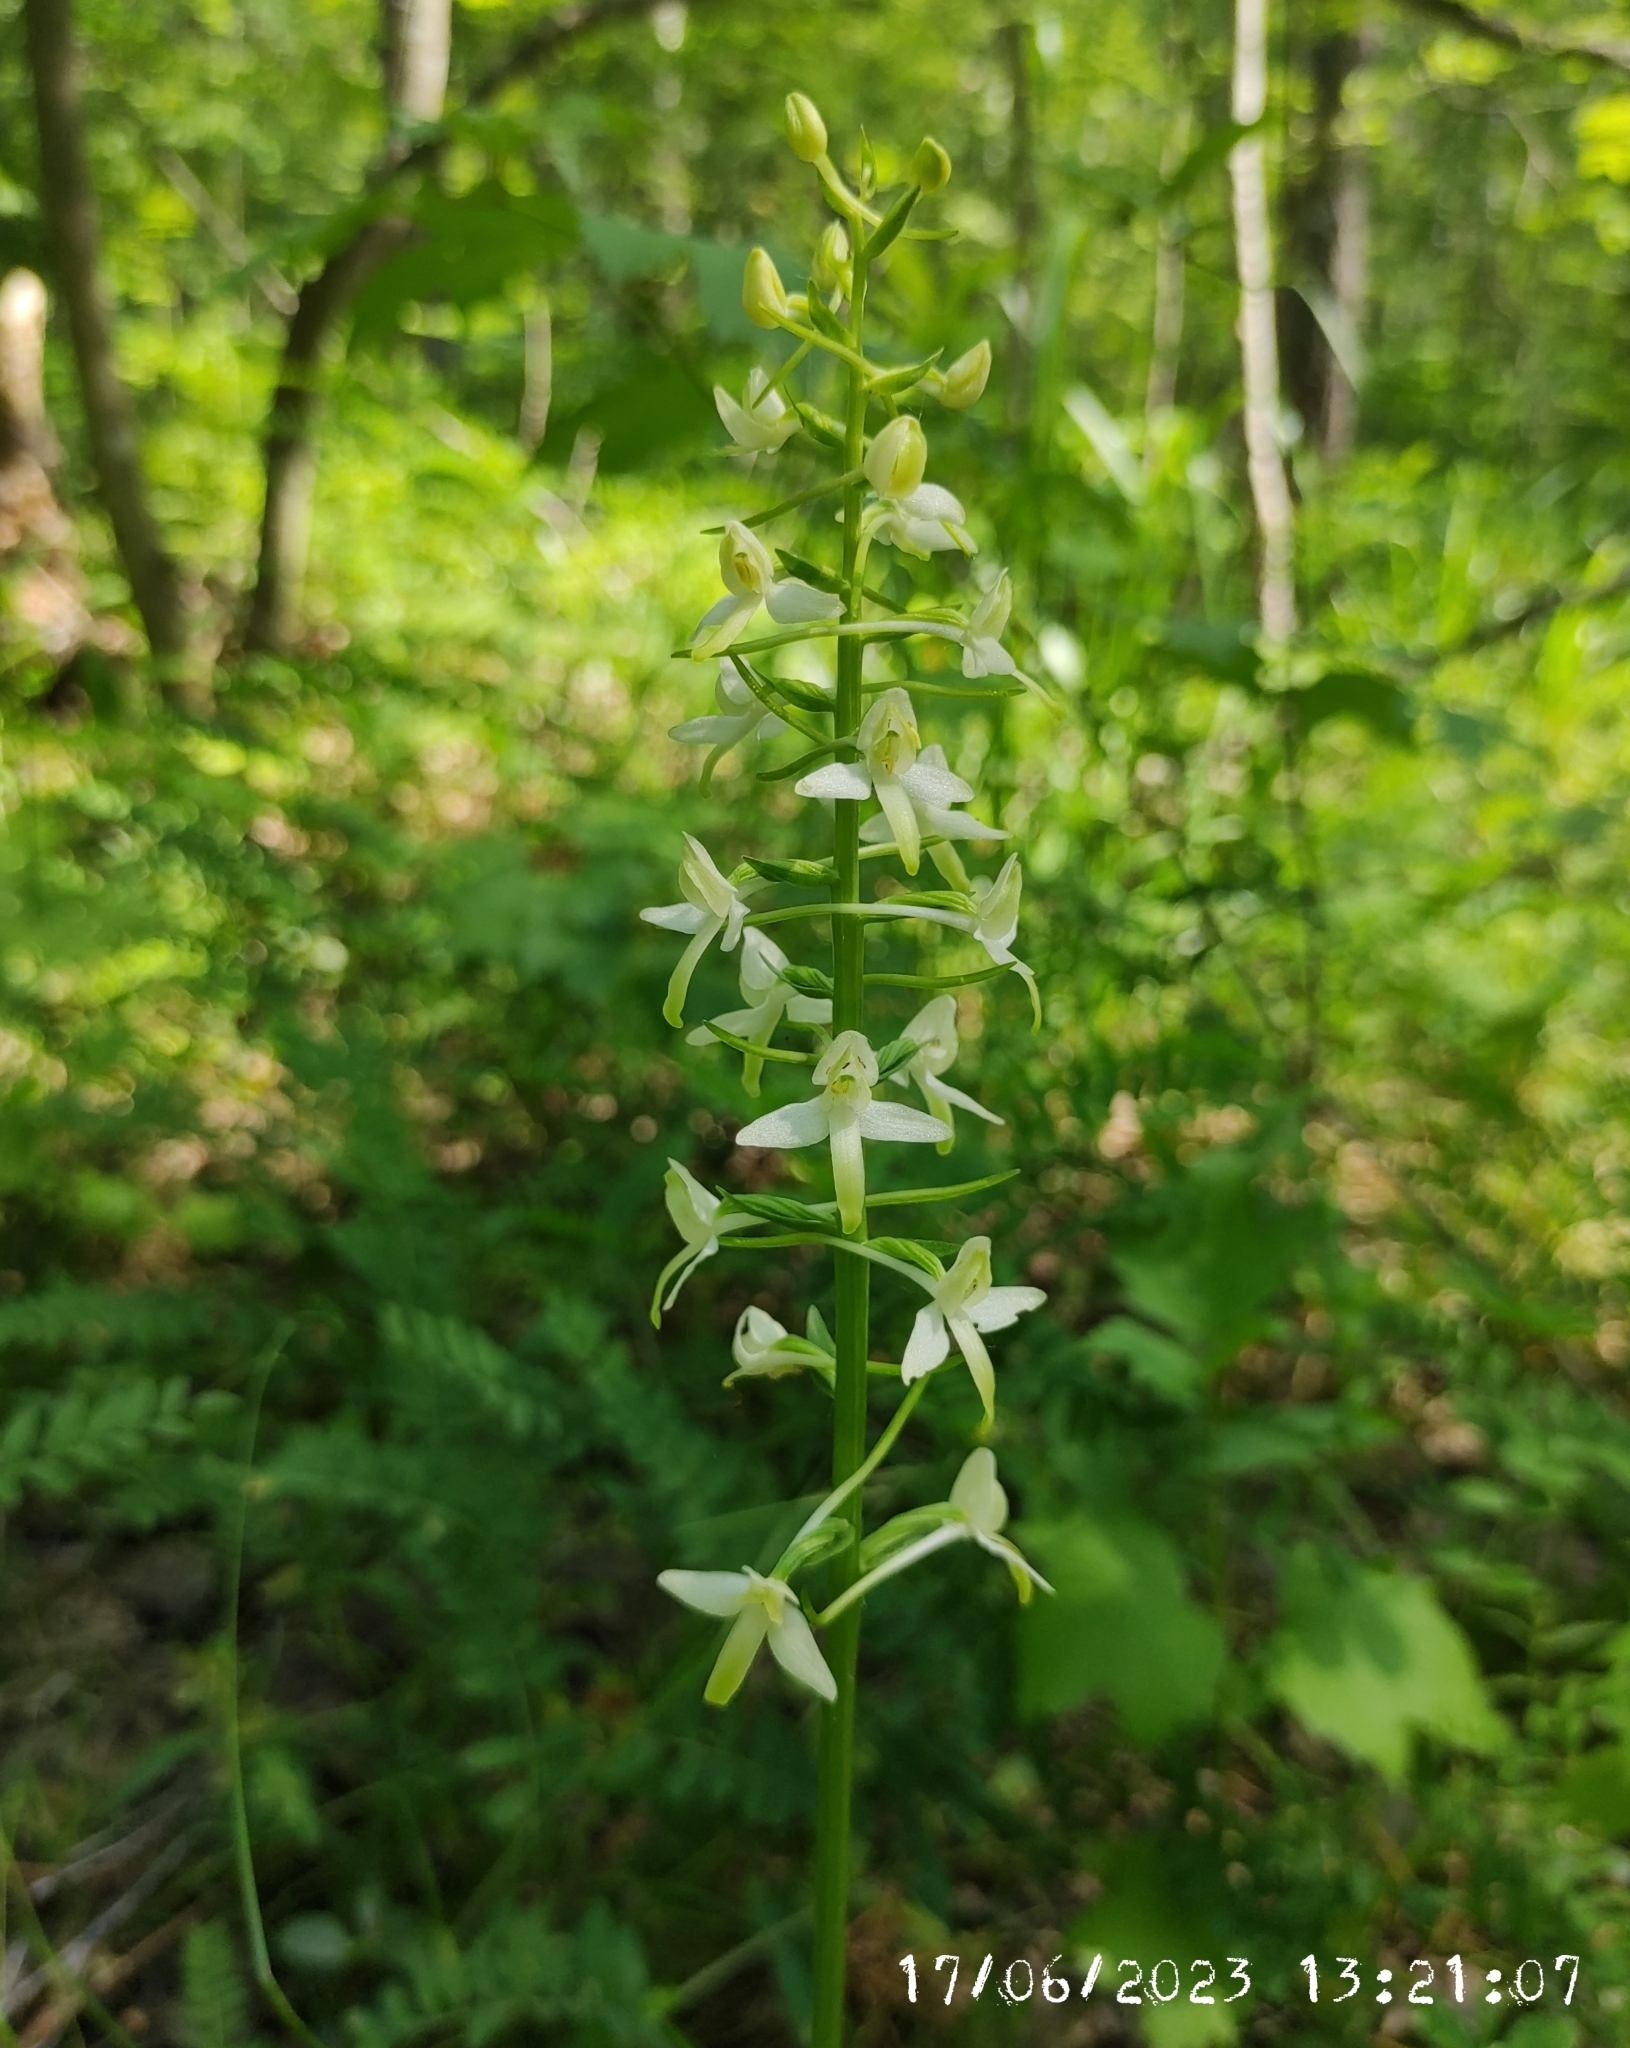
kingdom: Plantae
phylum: Tracheophyta
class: Liliopsida
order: Asparagales
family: Orchidaceae
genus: Platanthera
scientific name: Platanthera bifolia
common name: Lesser butterfly-orchid
